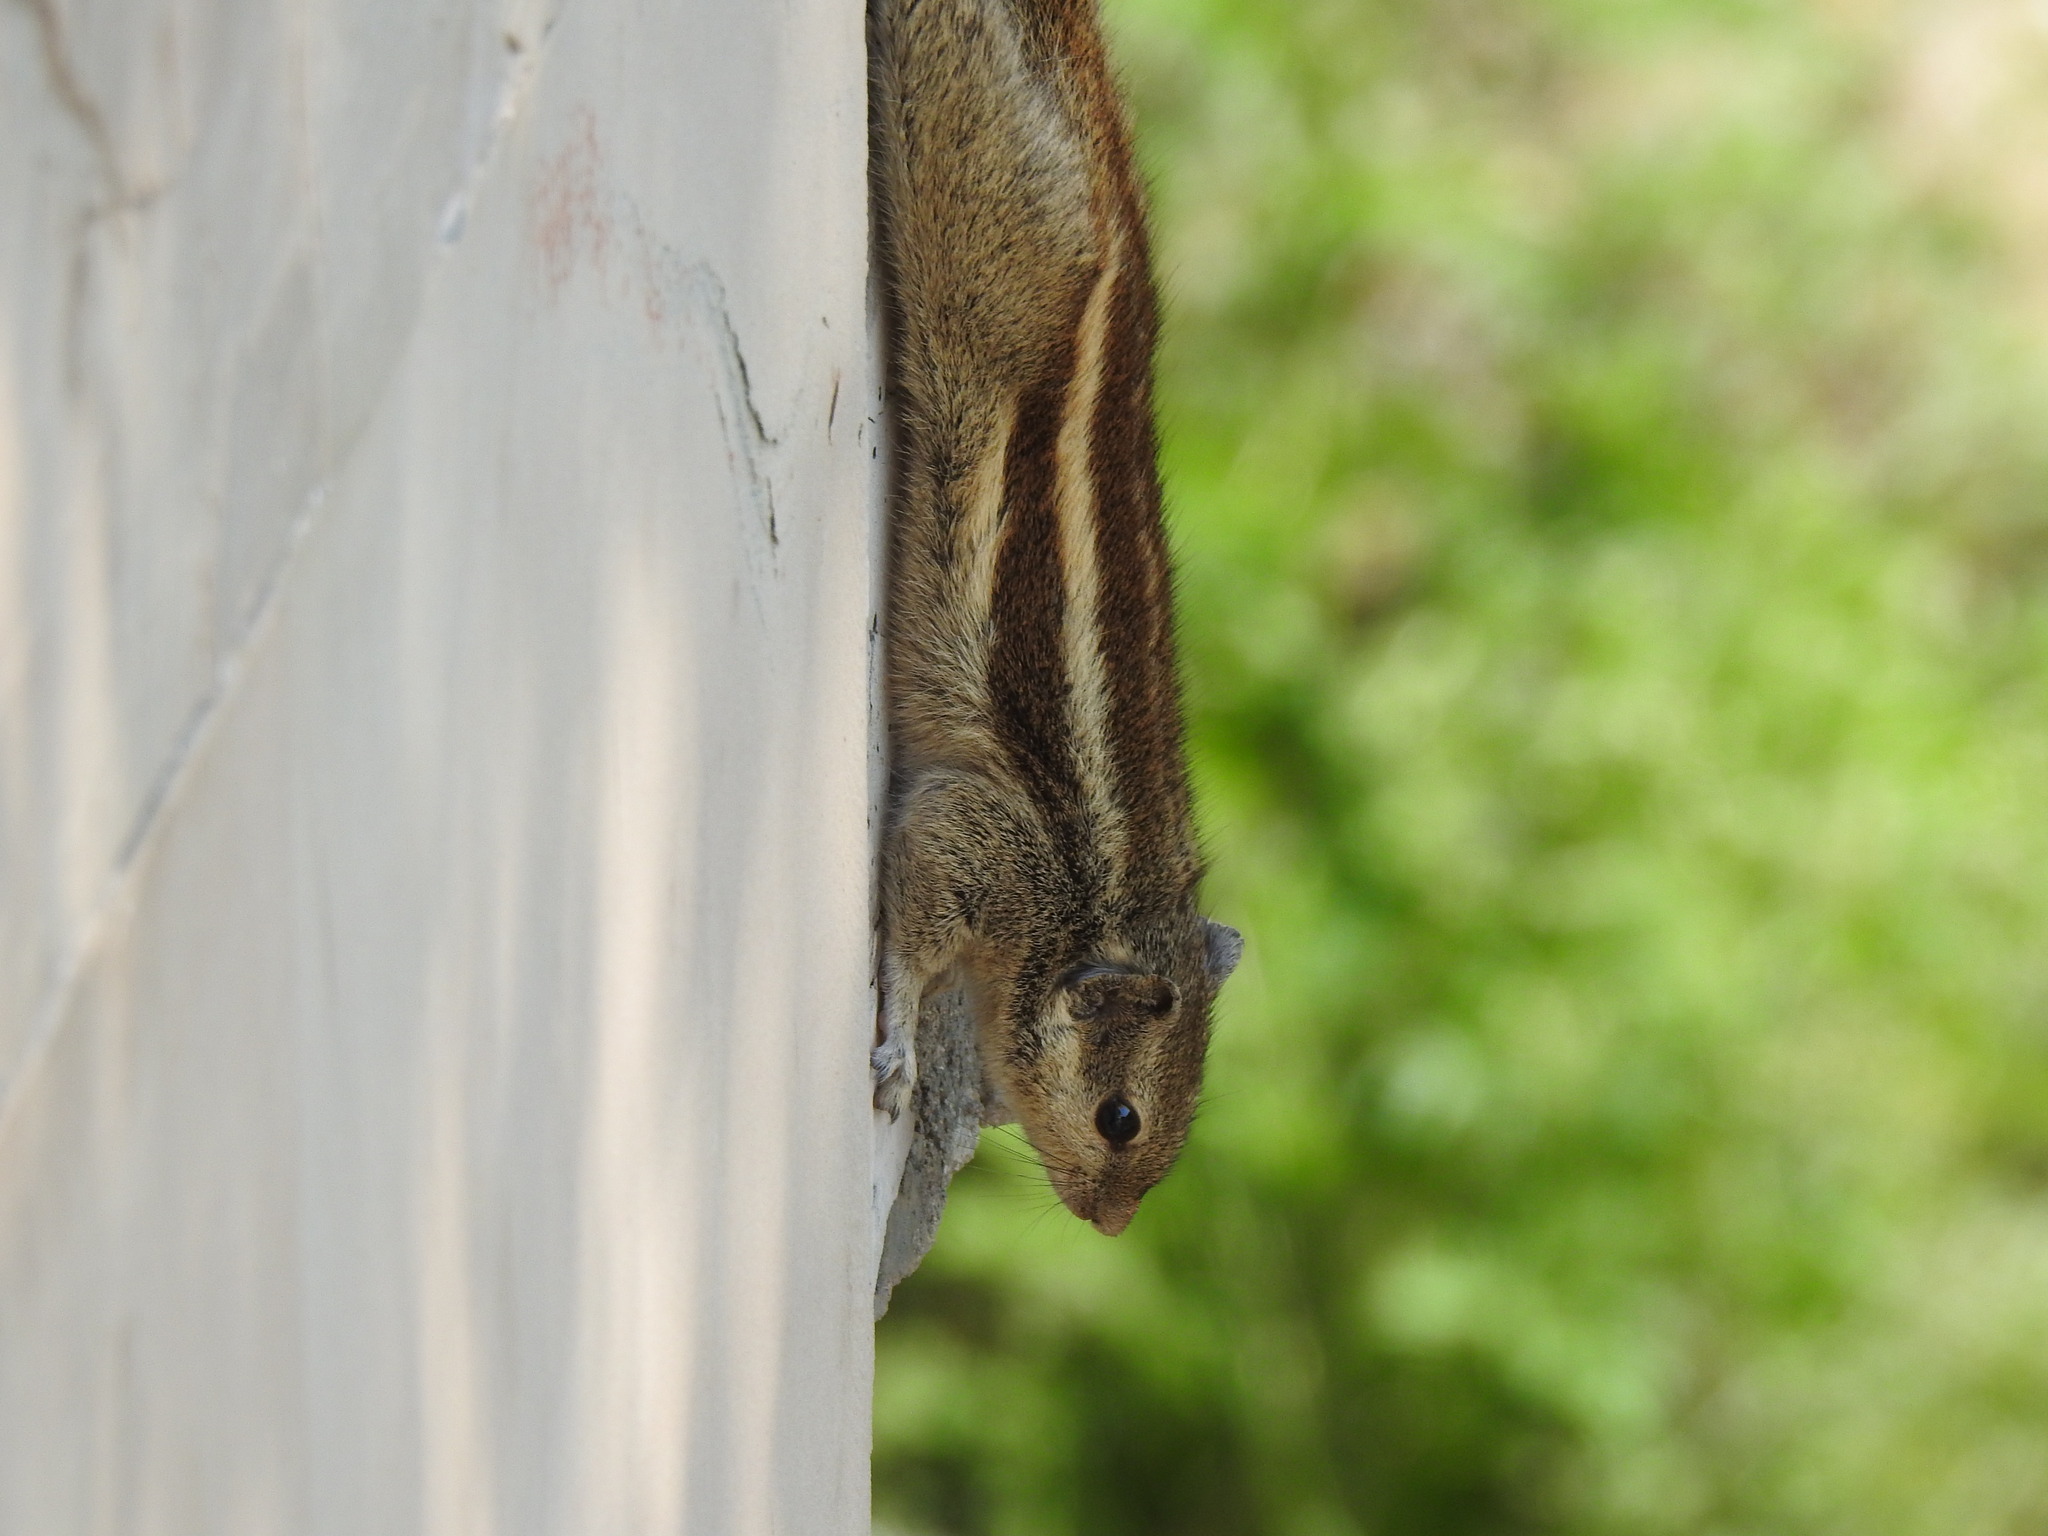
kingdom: Animalia
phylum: Chordata
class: Mammalia
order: Rodentia
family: Sciuridae
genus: Funambulus
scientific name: Funambulus pennantii
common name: Northern palm squirrel
